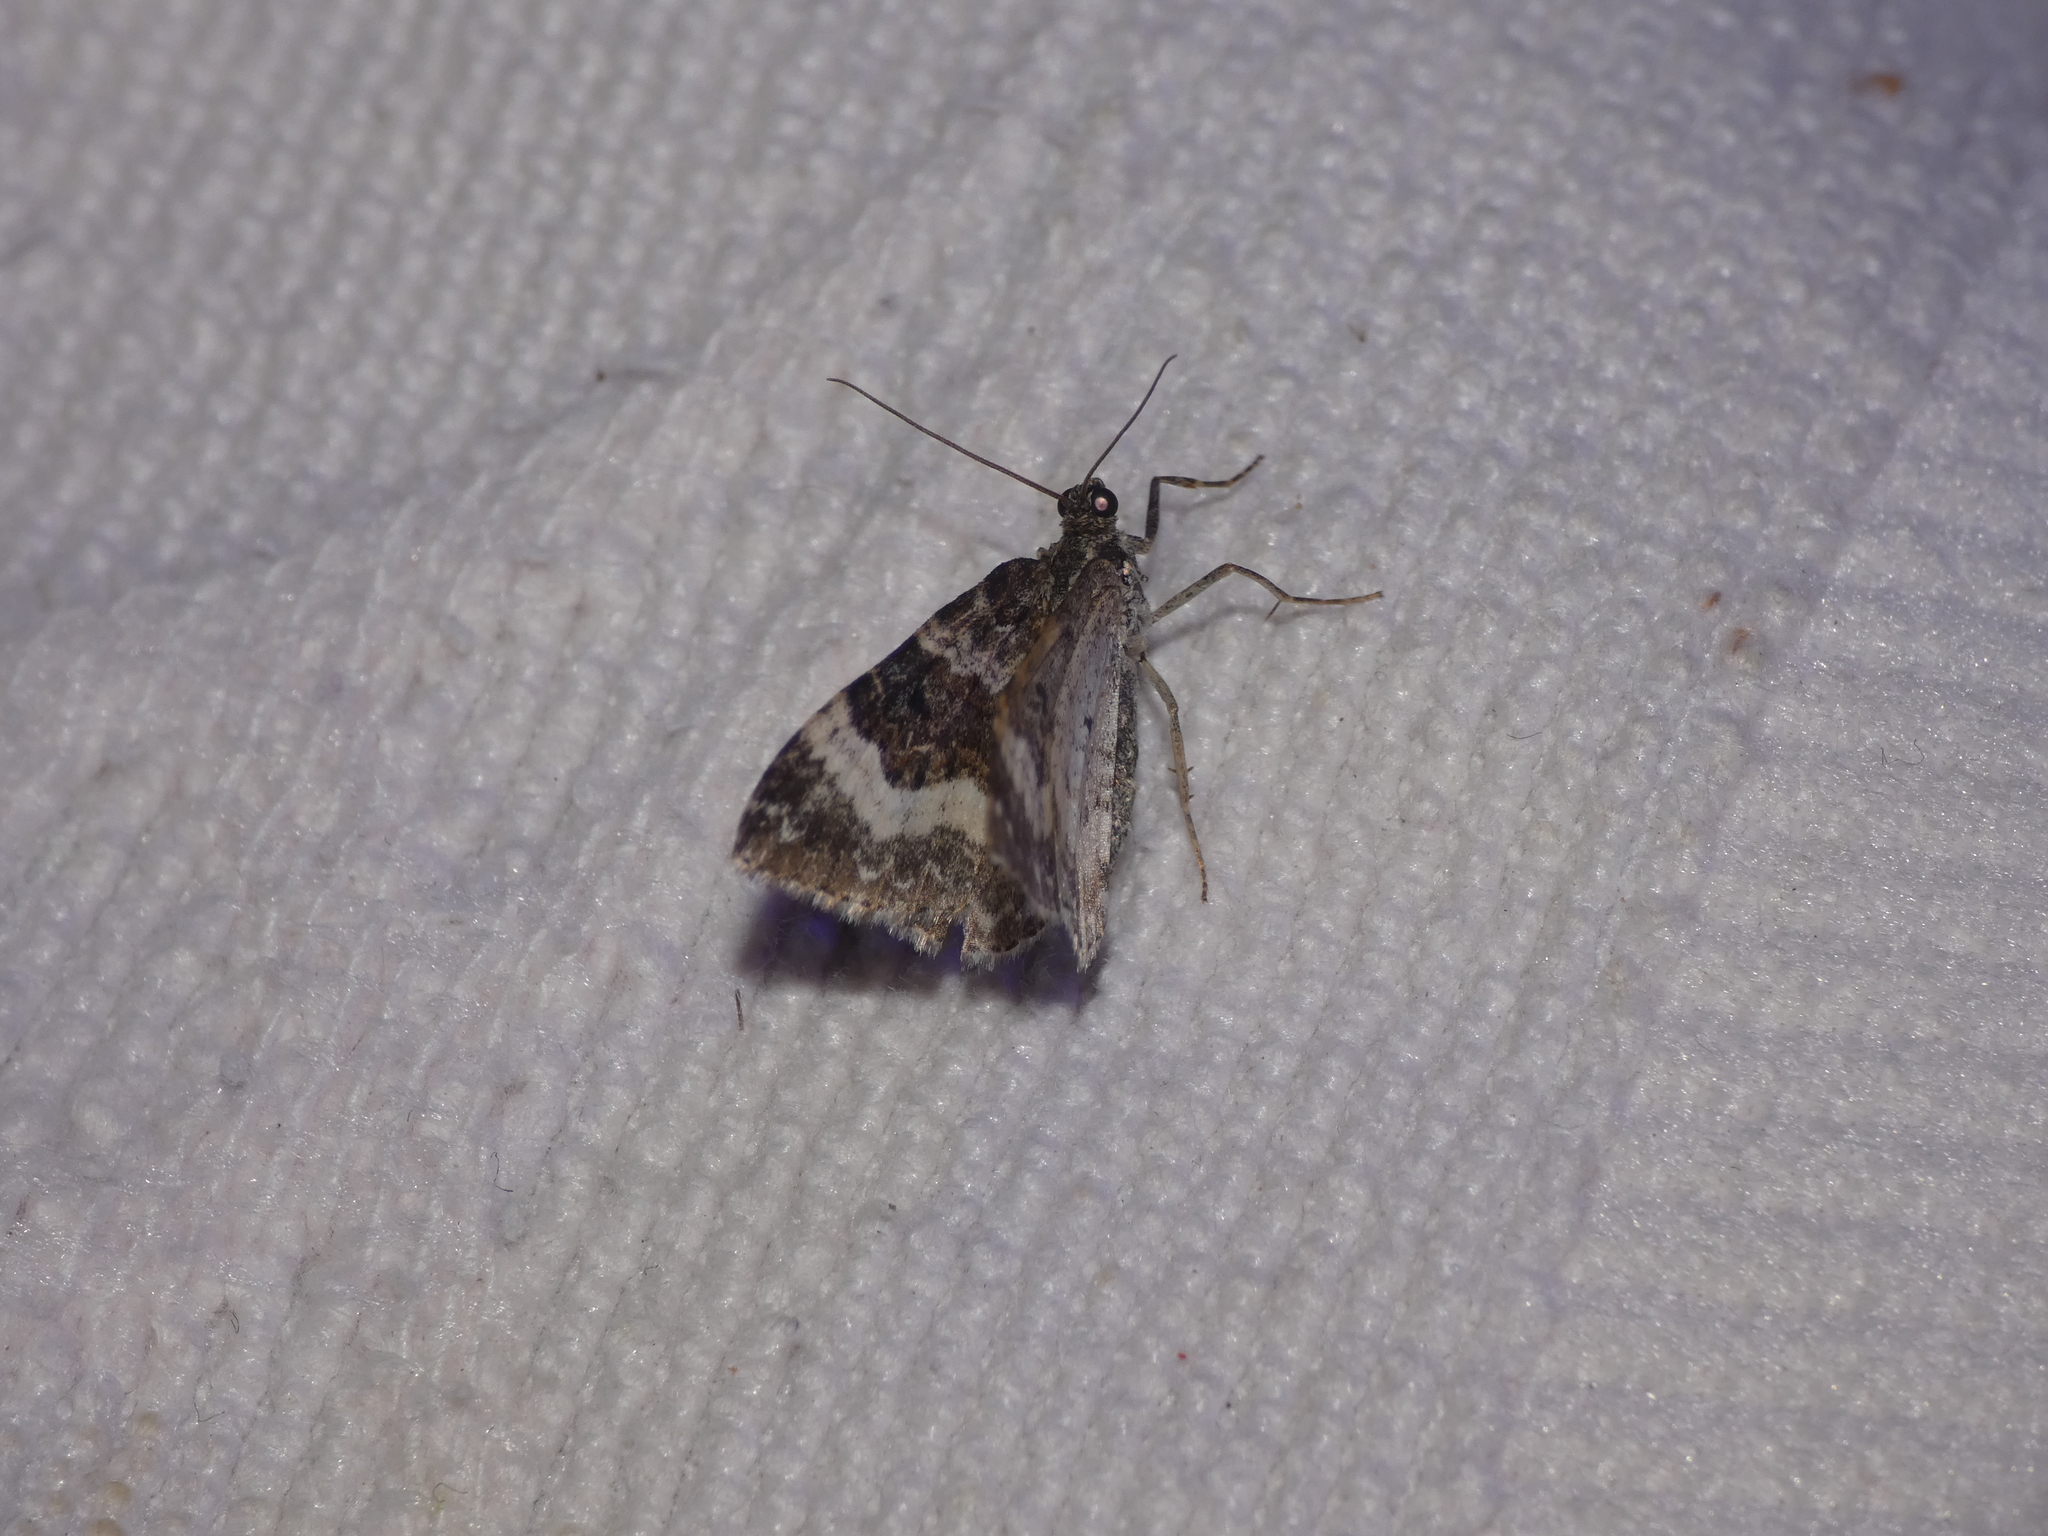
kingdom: Animalia
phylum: Arthropoda
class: Insecta
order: Lepidoptera
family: Geometridae
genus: Epirrhoe
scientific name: Epirrhoe alternata
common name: Common carpet
